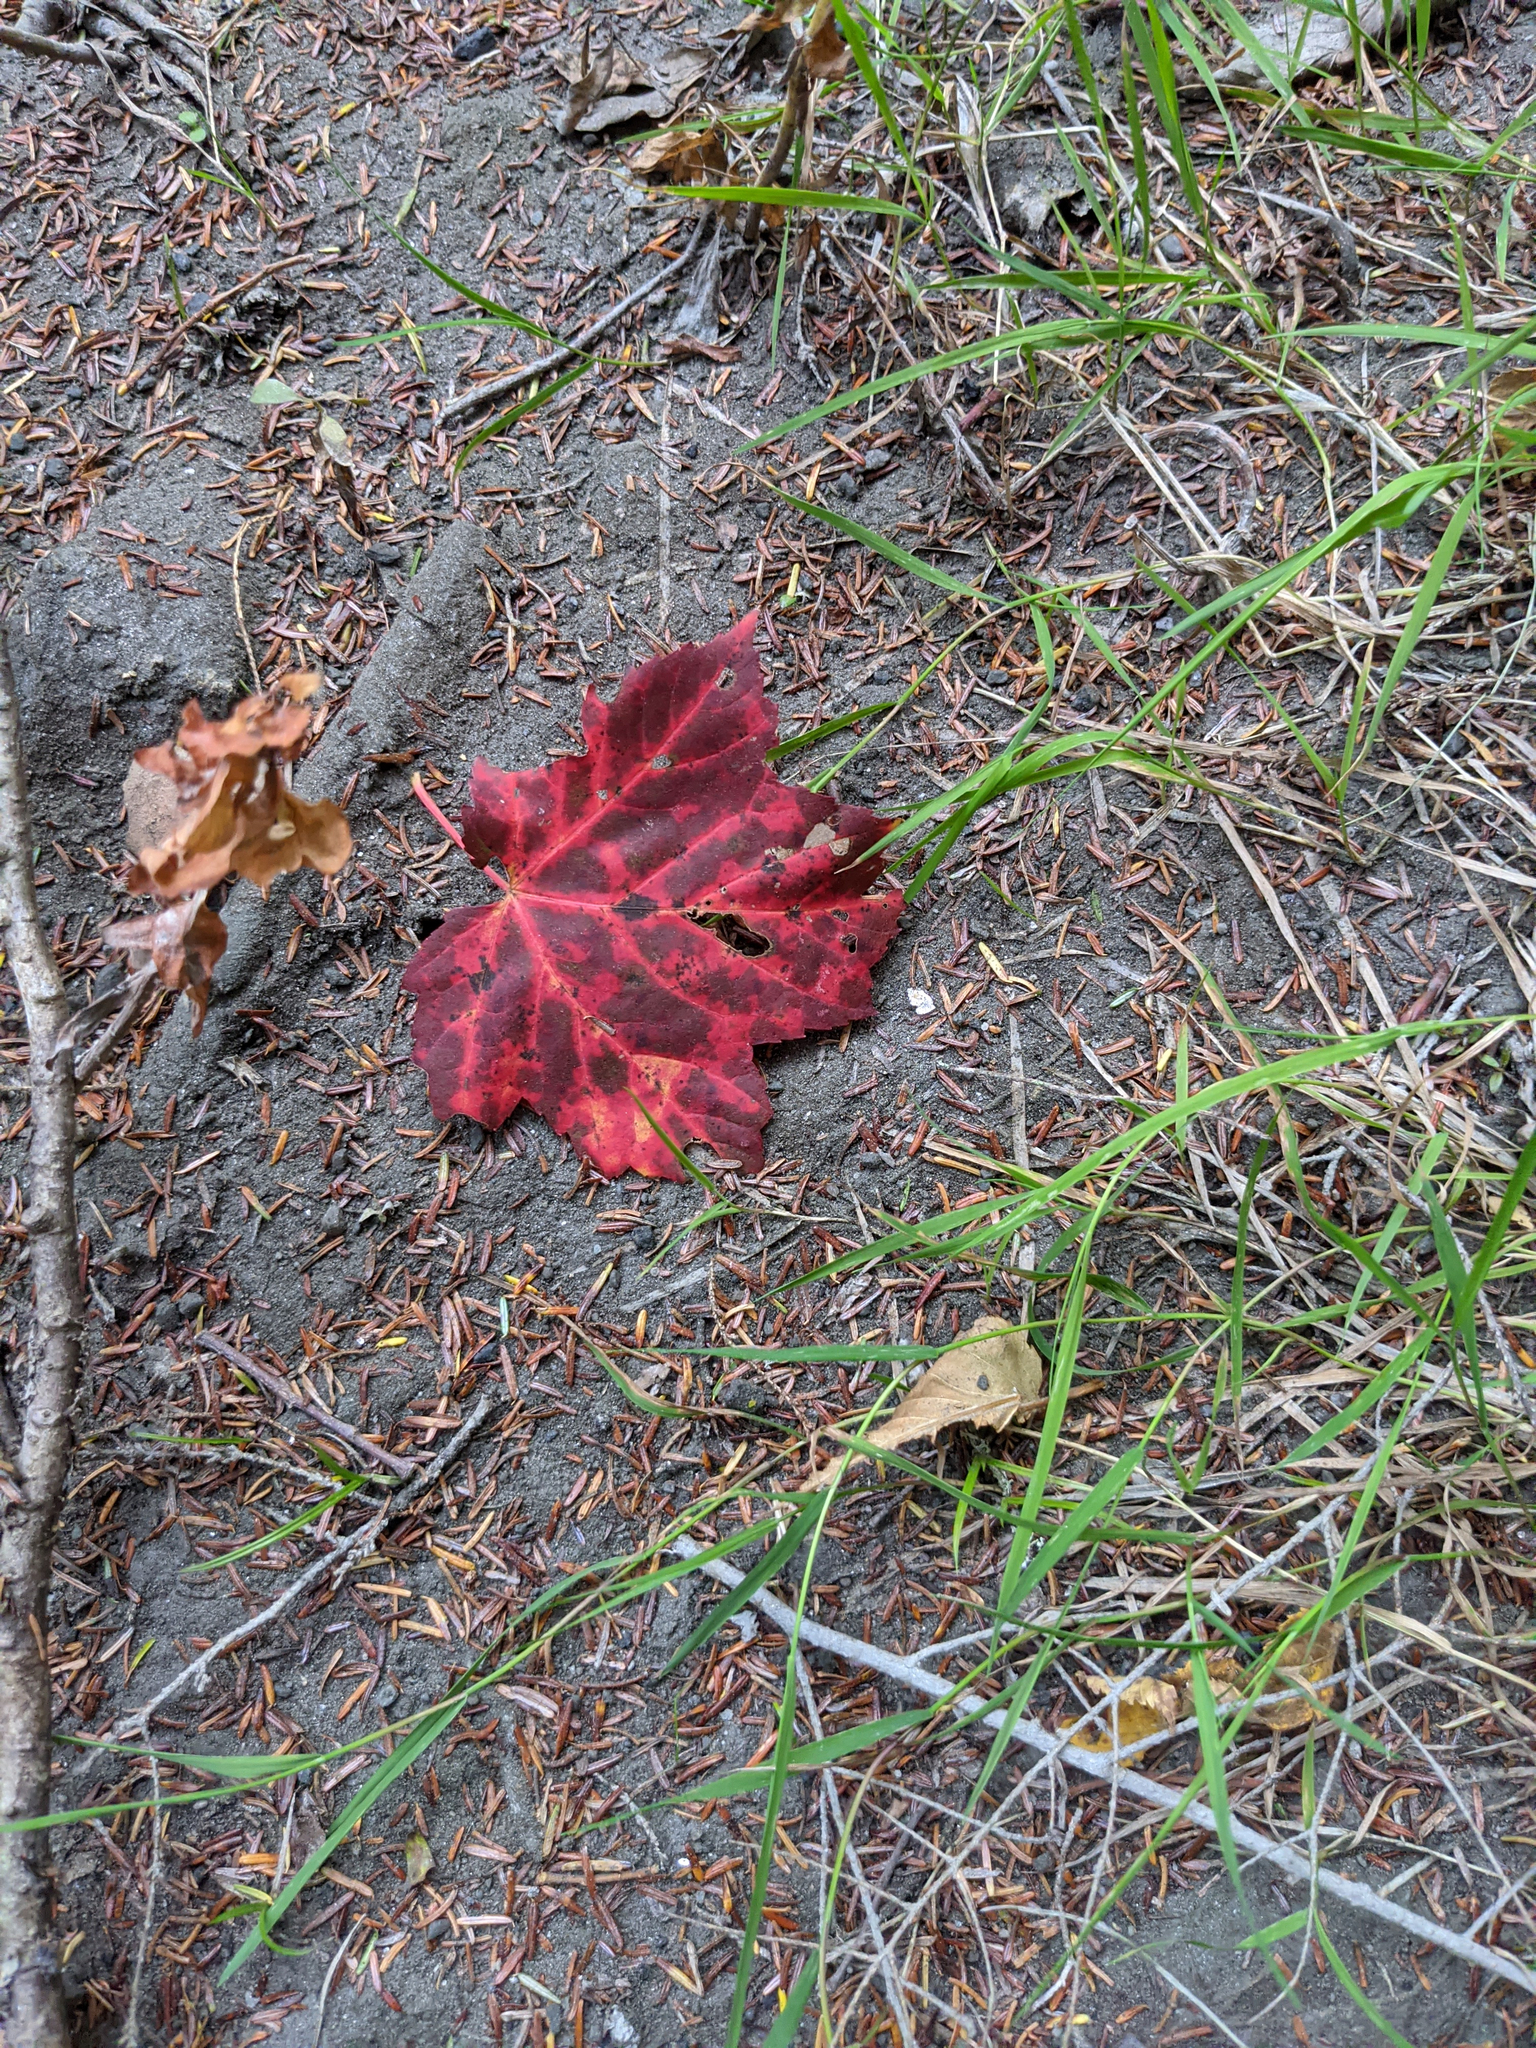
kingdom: Plantae
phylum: Tracheophyta
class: Magnoliopsida
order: Sapindales
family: Sapindaceae
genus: Acer
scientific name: Acer rubrum
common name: Red maple
